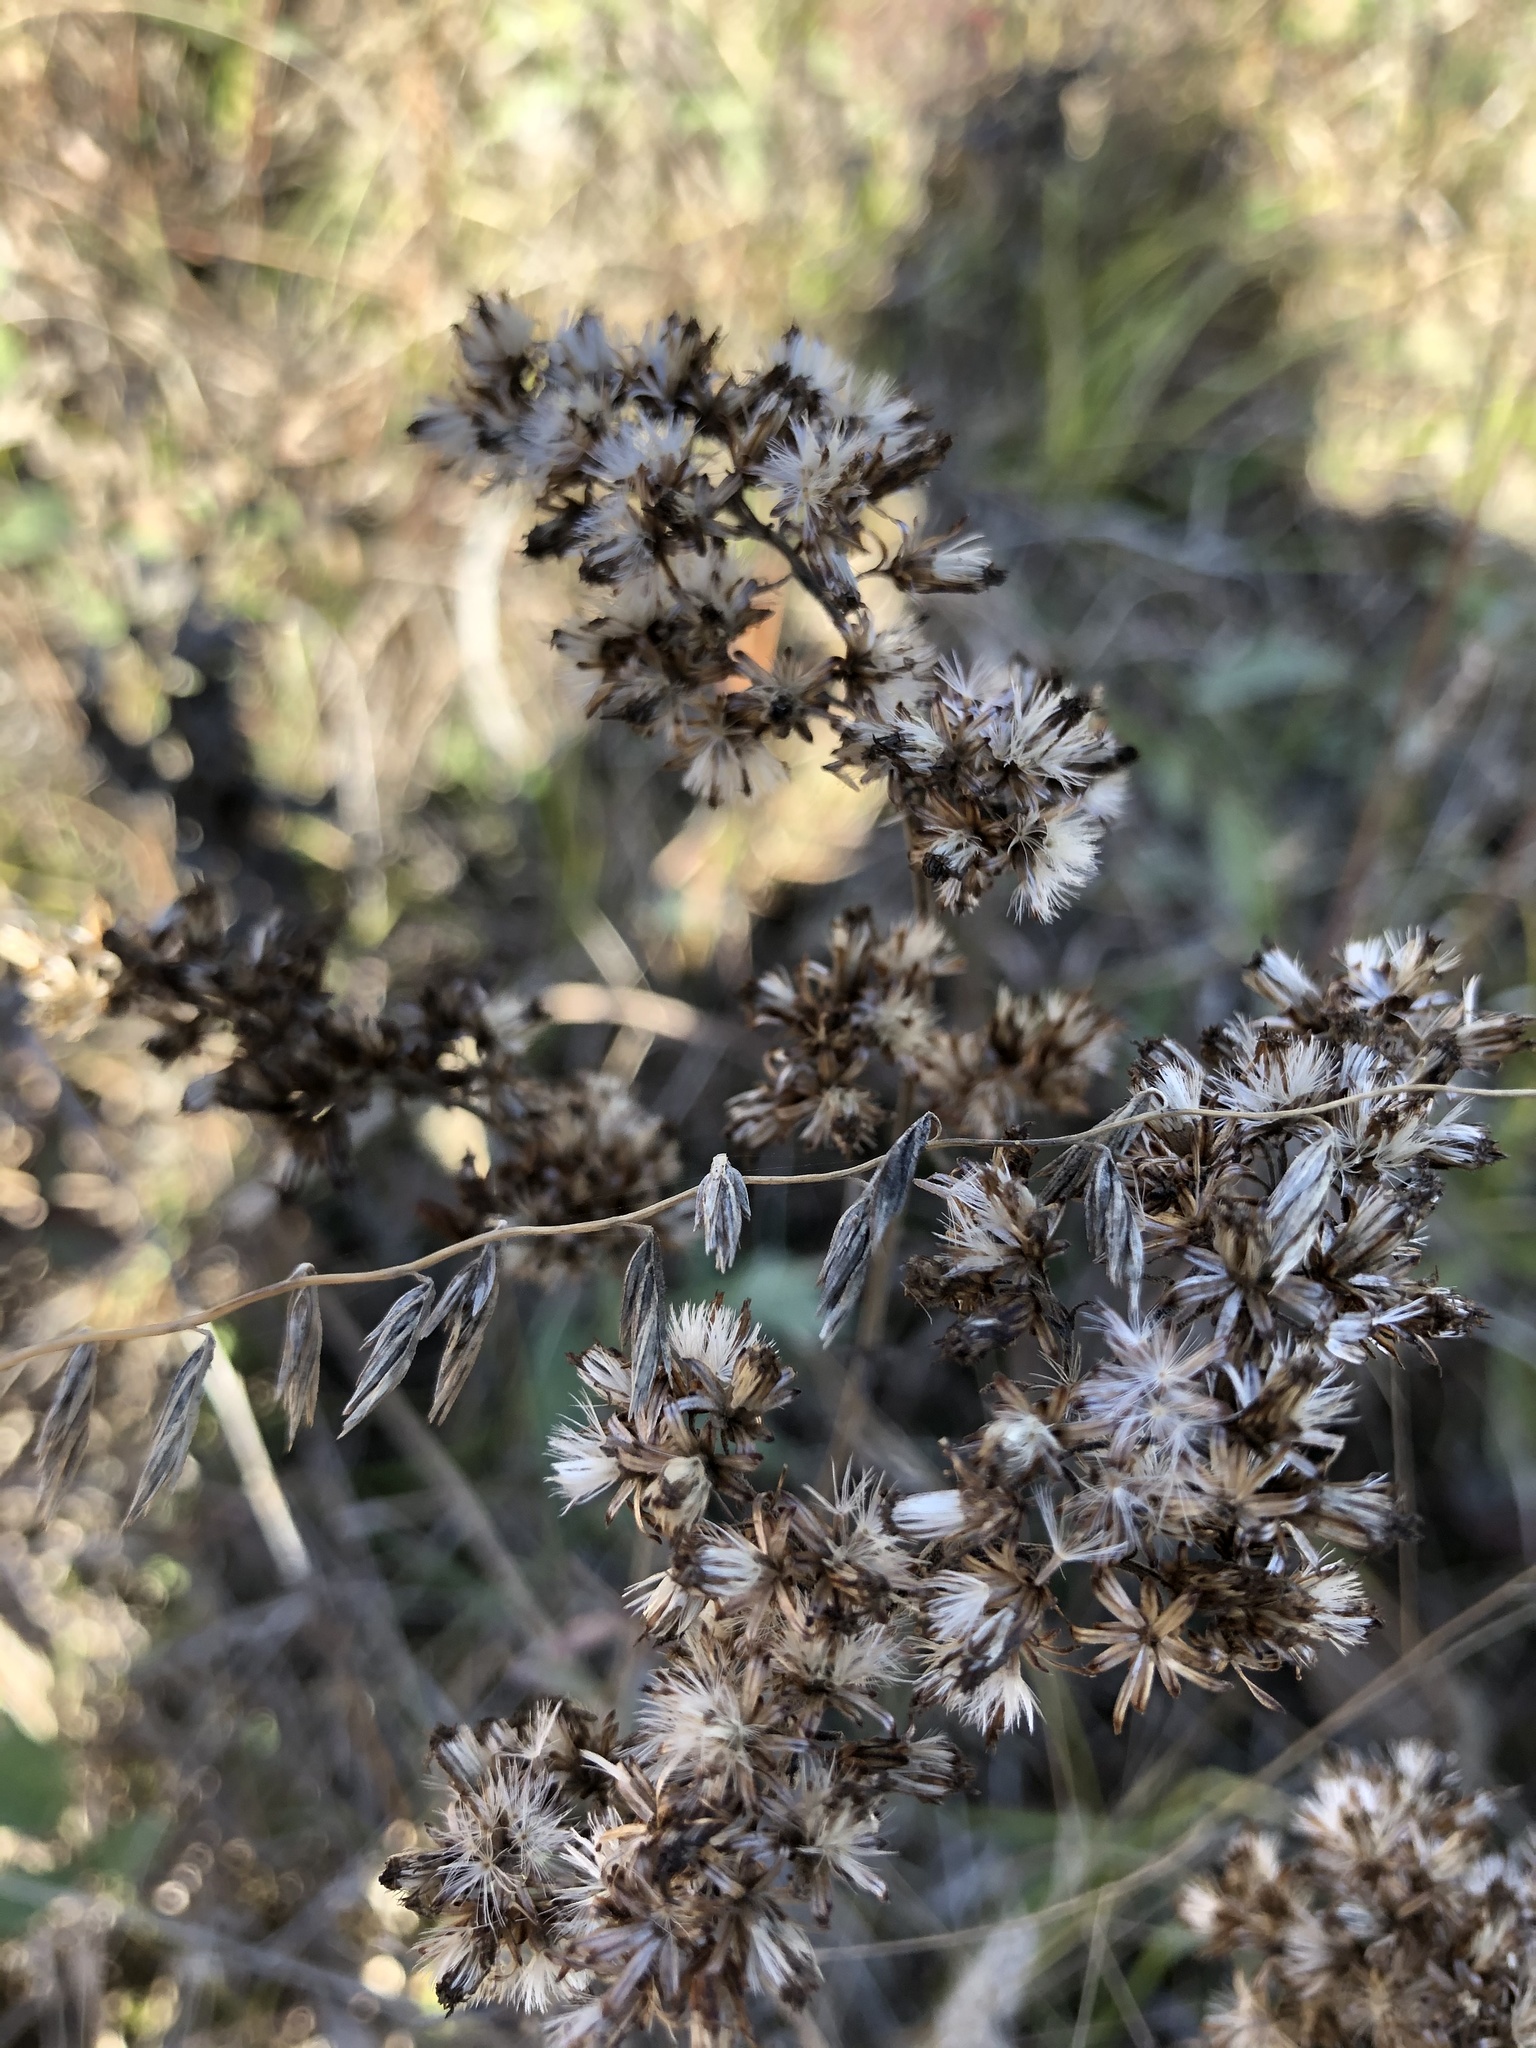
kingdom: Plantae
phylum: Tracheophyta
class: Liliopsida
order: Poales
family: Poaceae
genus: Bouteloua
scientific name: Bouteloua curtipendula
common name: Side-oats grama
